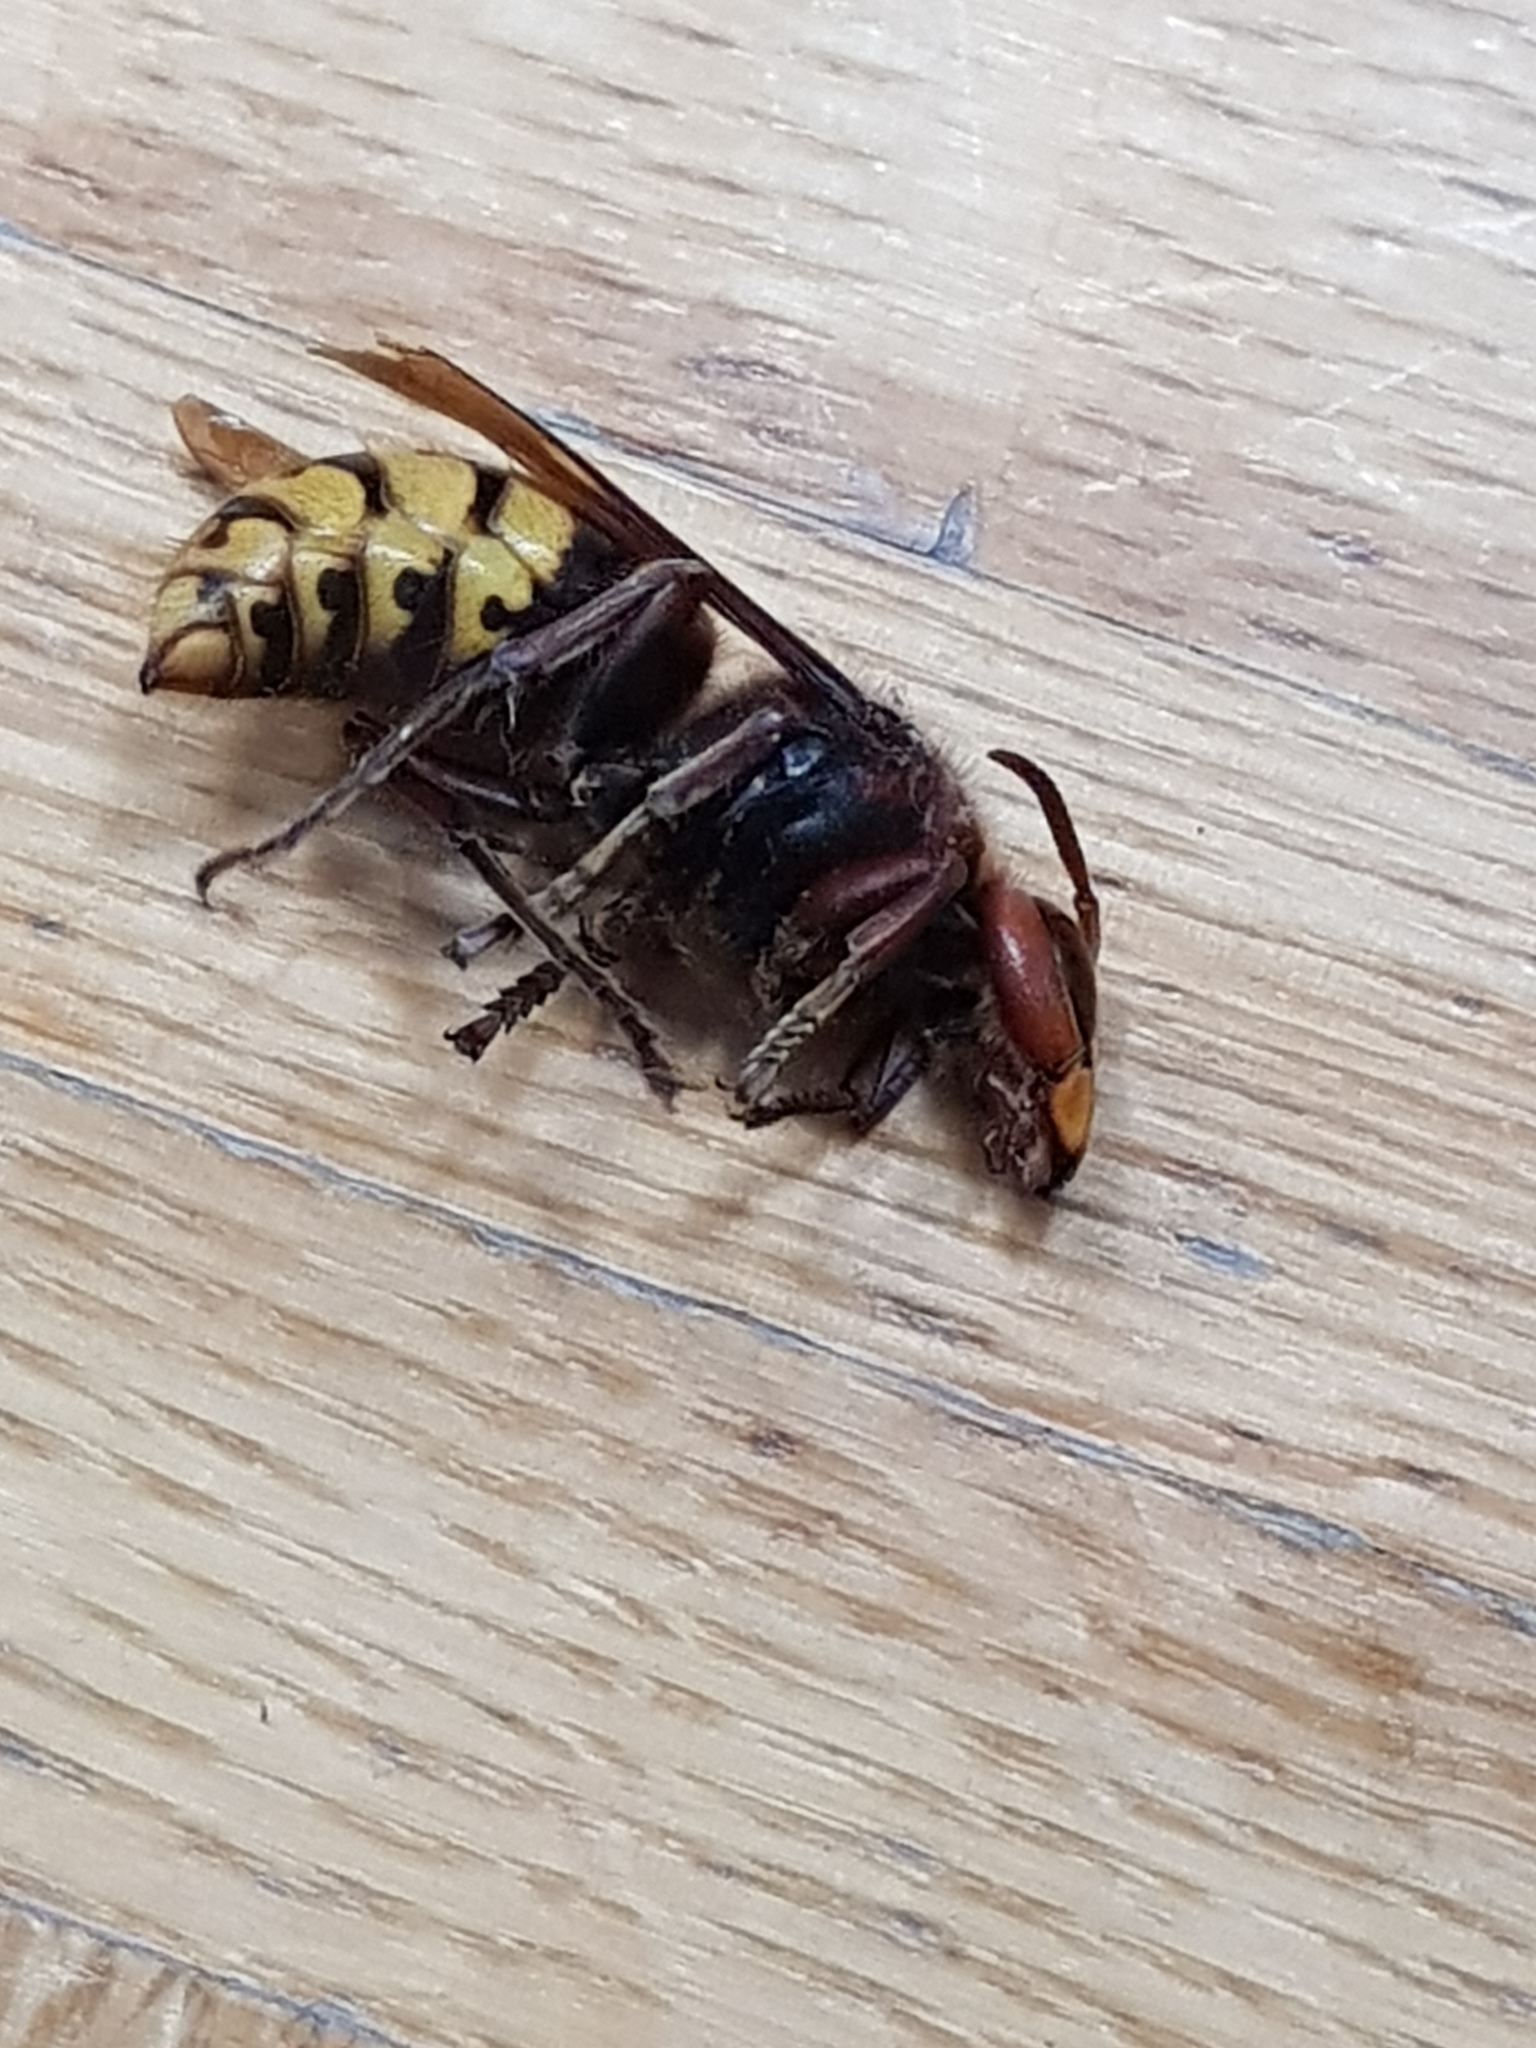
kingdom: Animalia
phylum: Arthropoda
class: Insecta
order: Hymenoptera
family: Vespidae
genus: Vespa
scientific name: Vespa crabro
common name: Hornet
